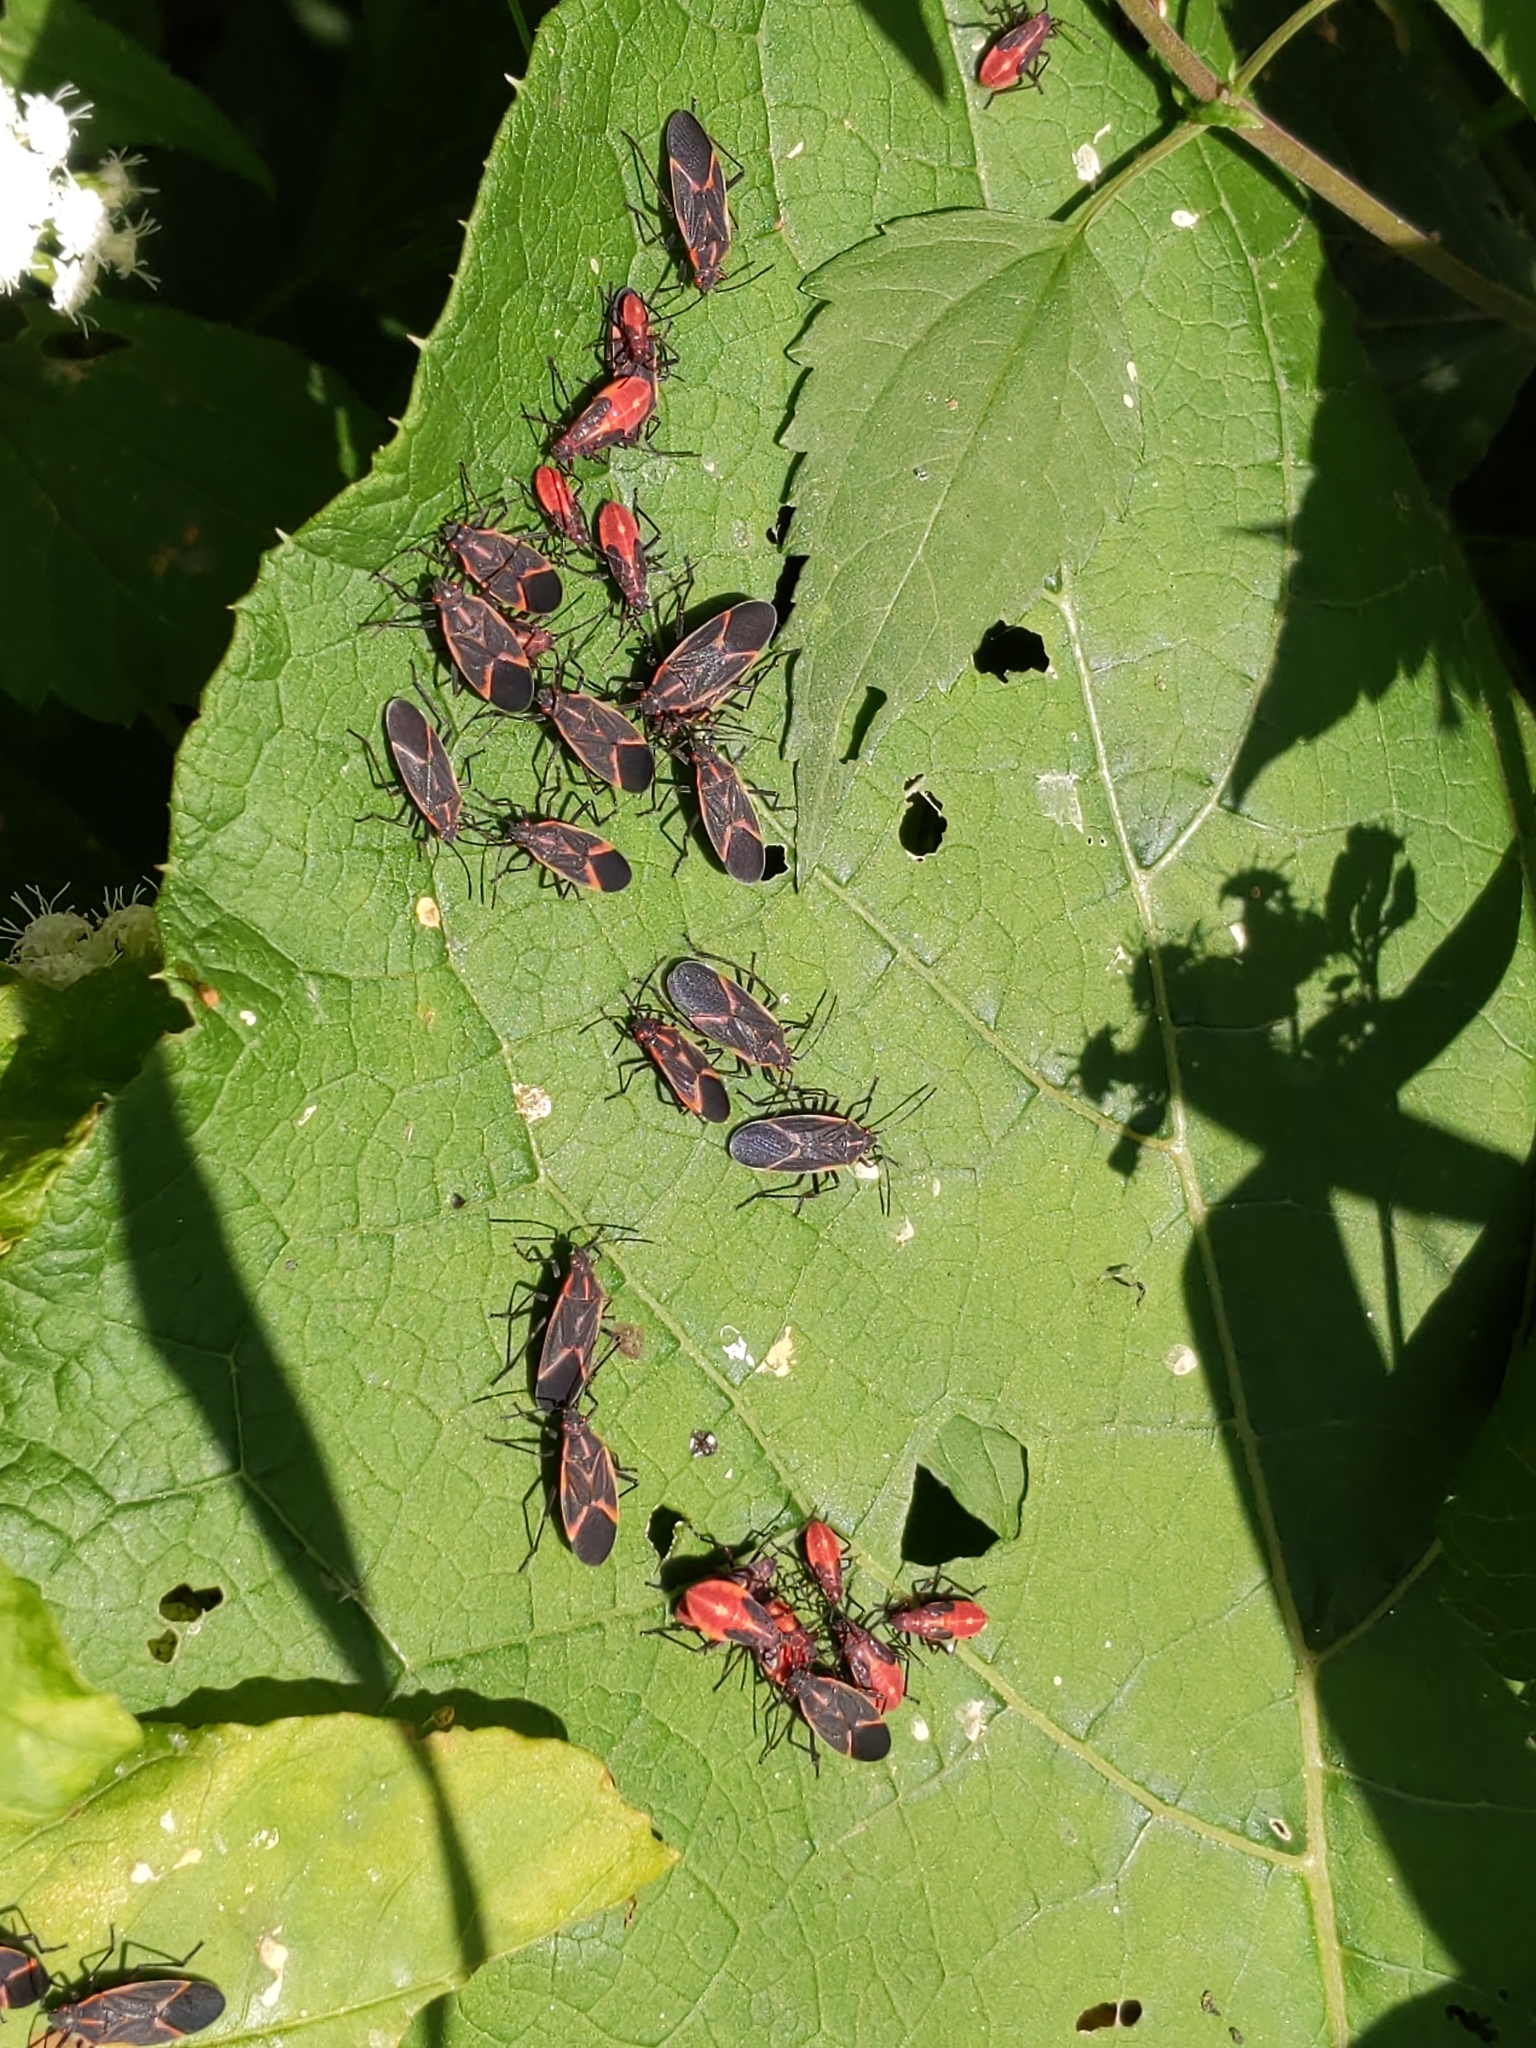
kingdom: Animalia
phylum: Arthropoda
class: Insecta
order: Hemiptera
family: Rhopalidae
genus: Boisea
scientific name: Boisea trivittata
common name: Boxelder bug
